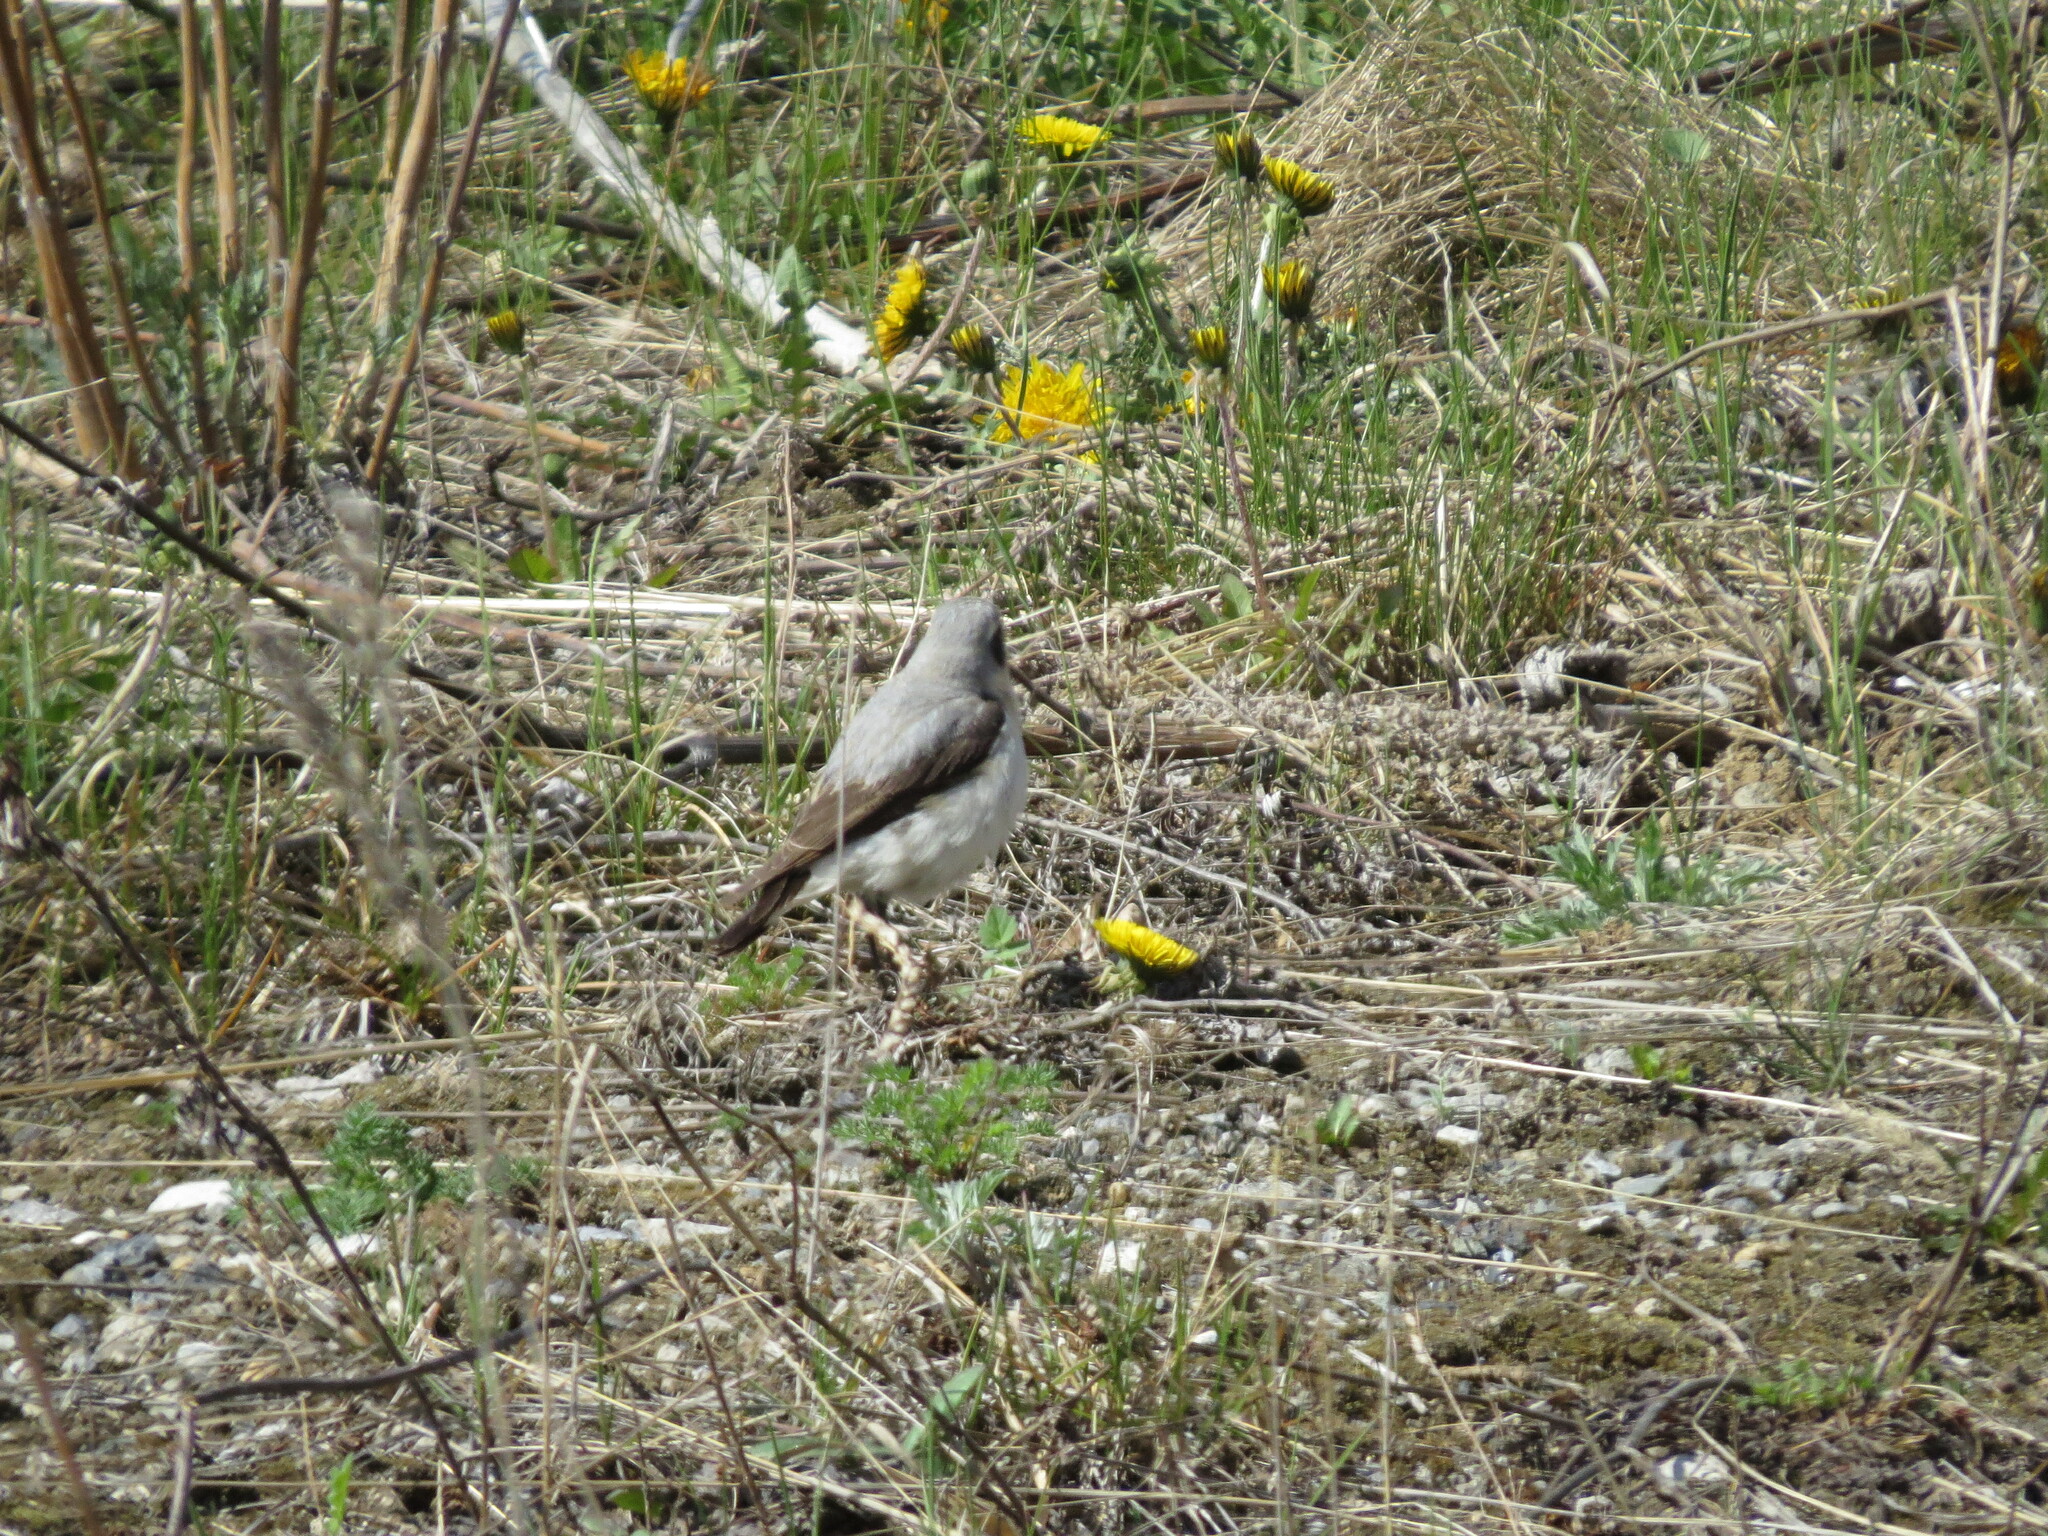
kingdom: Animalia
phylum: Chordata
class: Aves
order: Passeriformes
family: Muscicapidae
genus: Oenanthe
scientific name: Oenanthe oenanthe
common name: Northern wheatear
